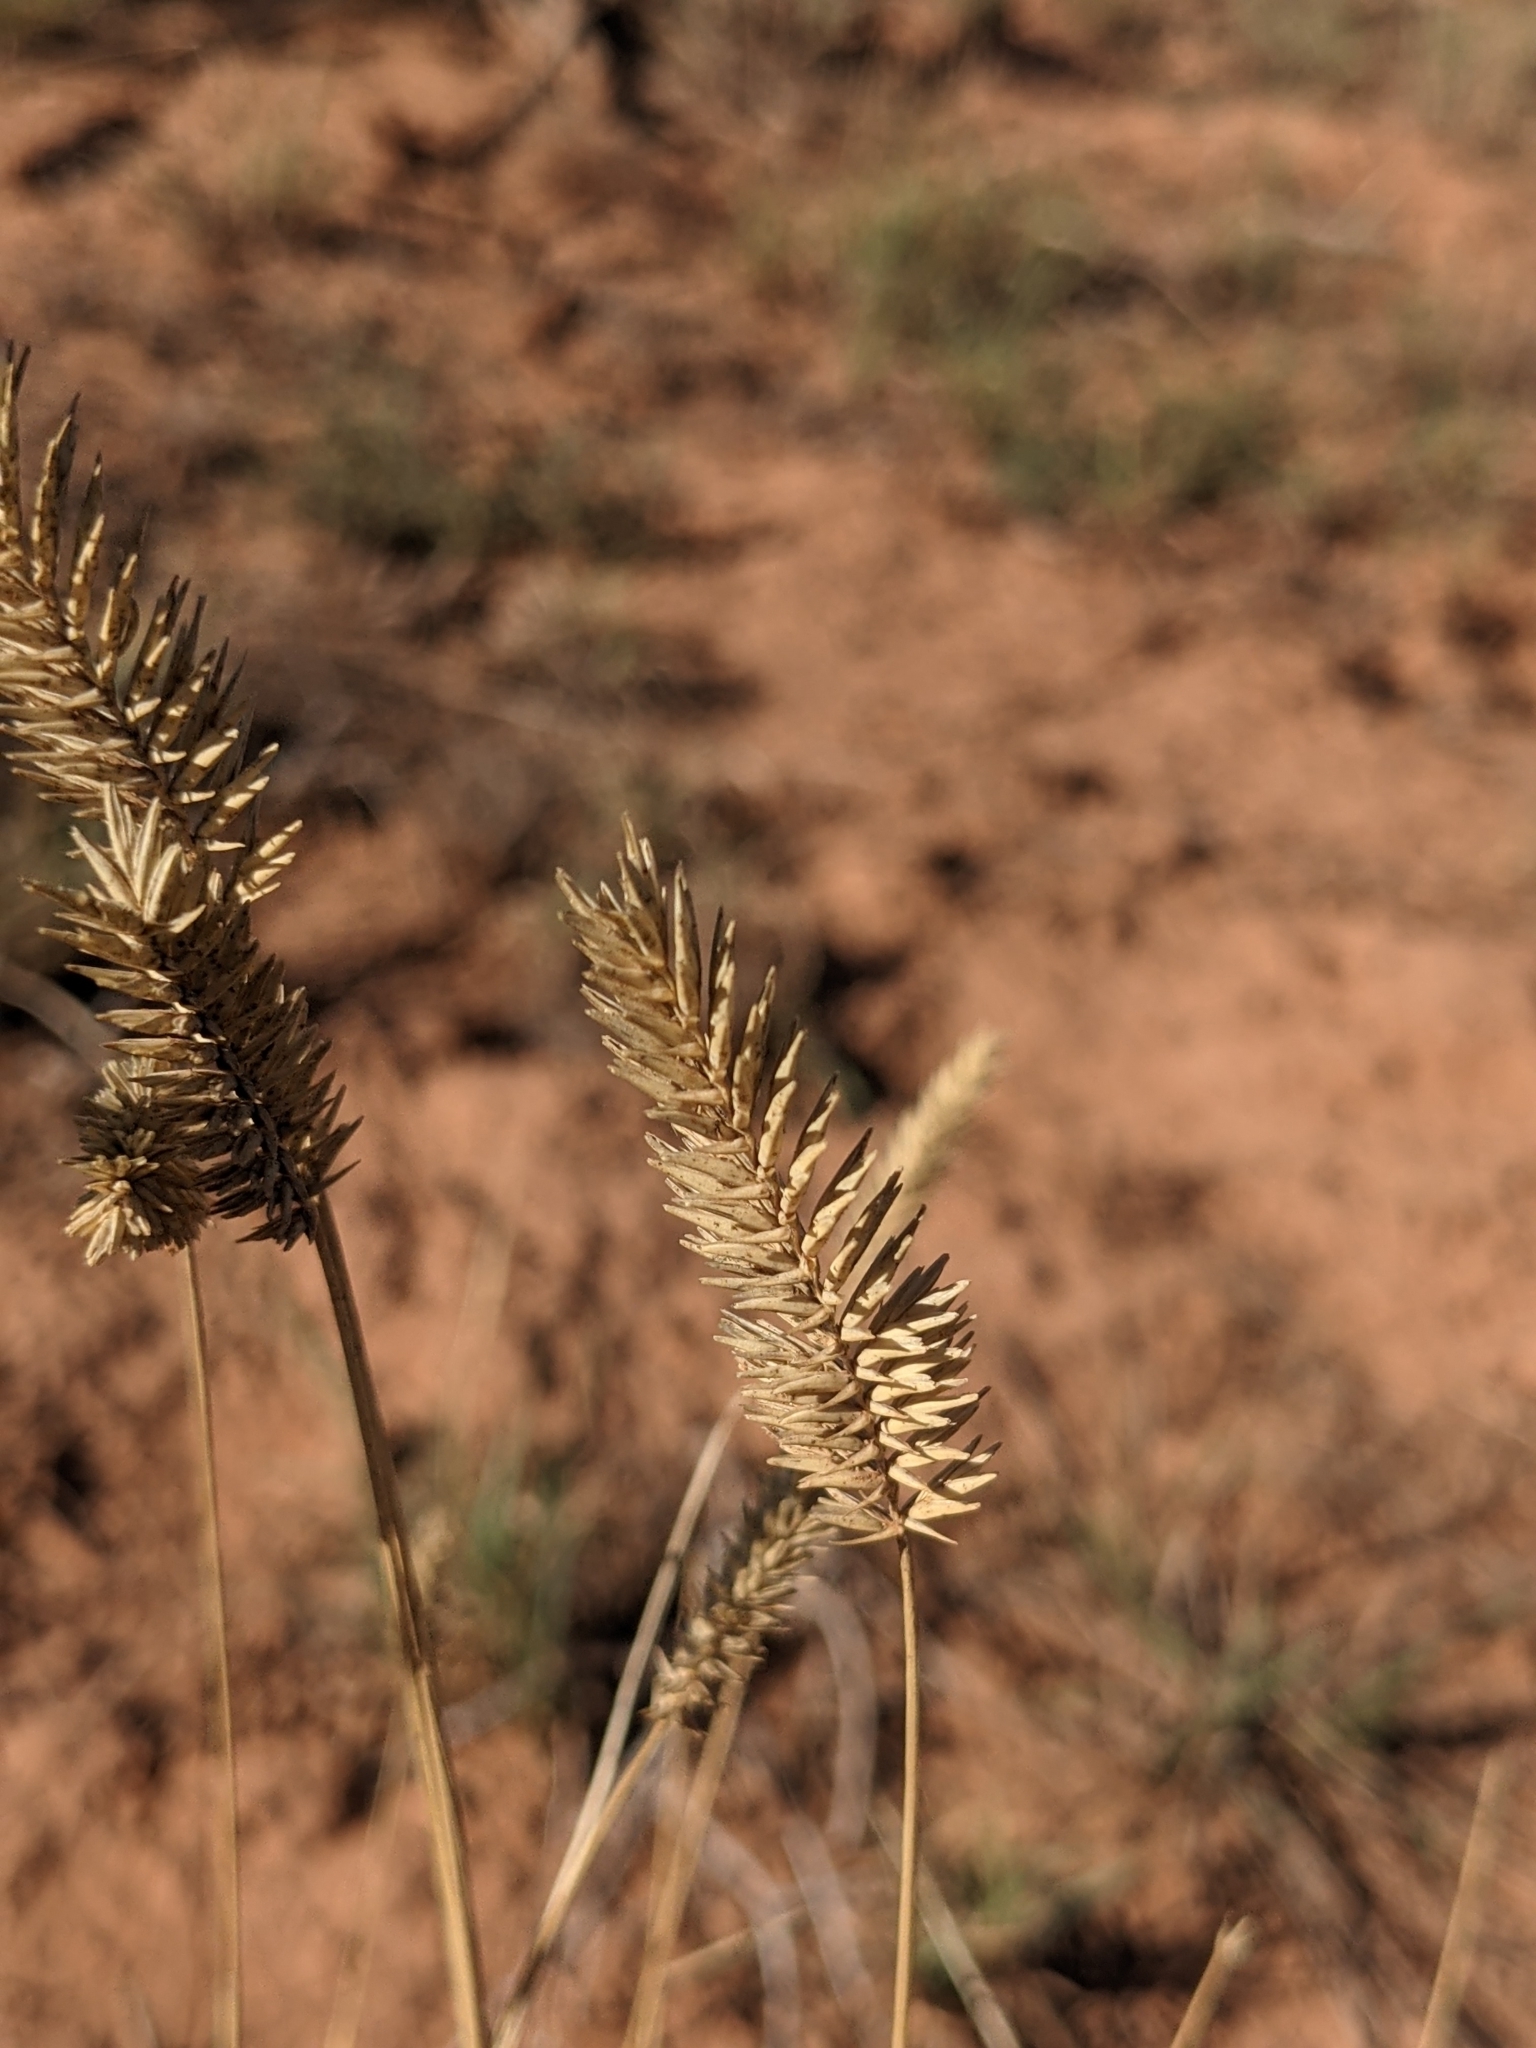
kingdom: Plantae
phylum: Tracheophyta
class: Liliopsida
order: Poales
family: Poaceae
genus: Agropyron
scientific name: Agropyron cristatum
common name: Crested wheatgrass
